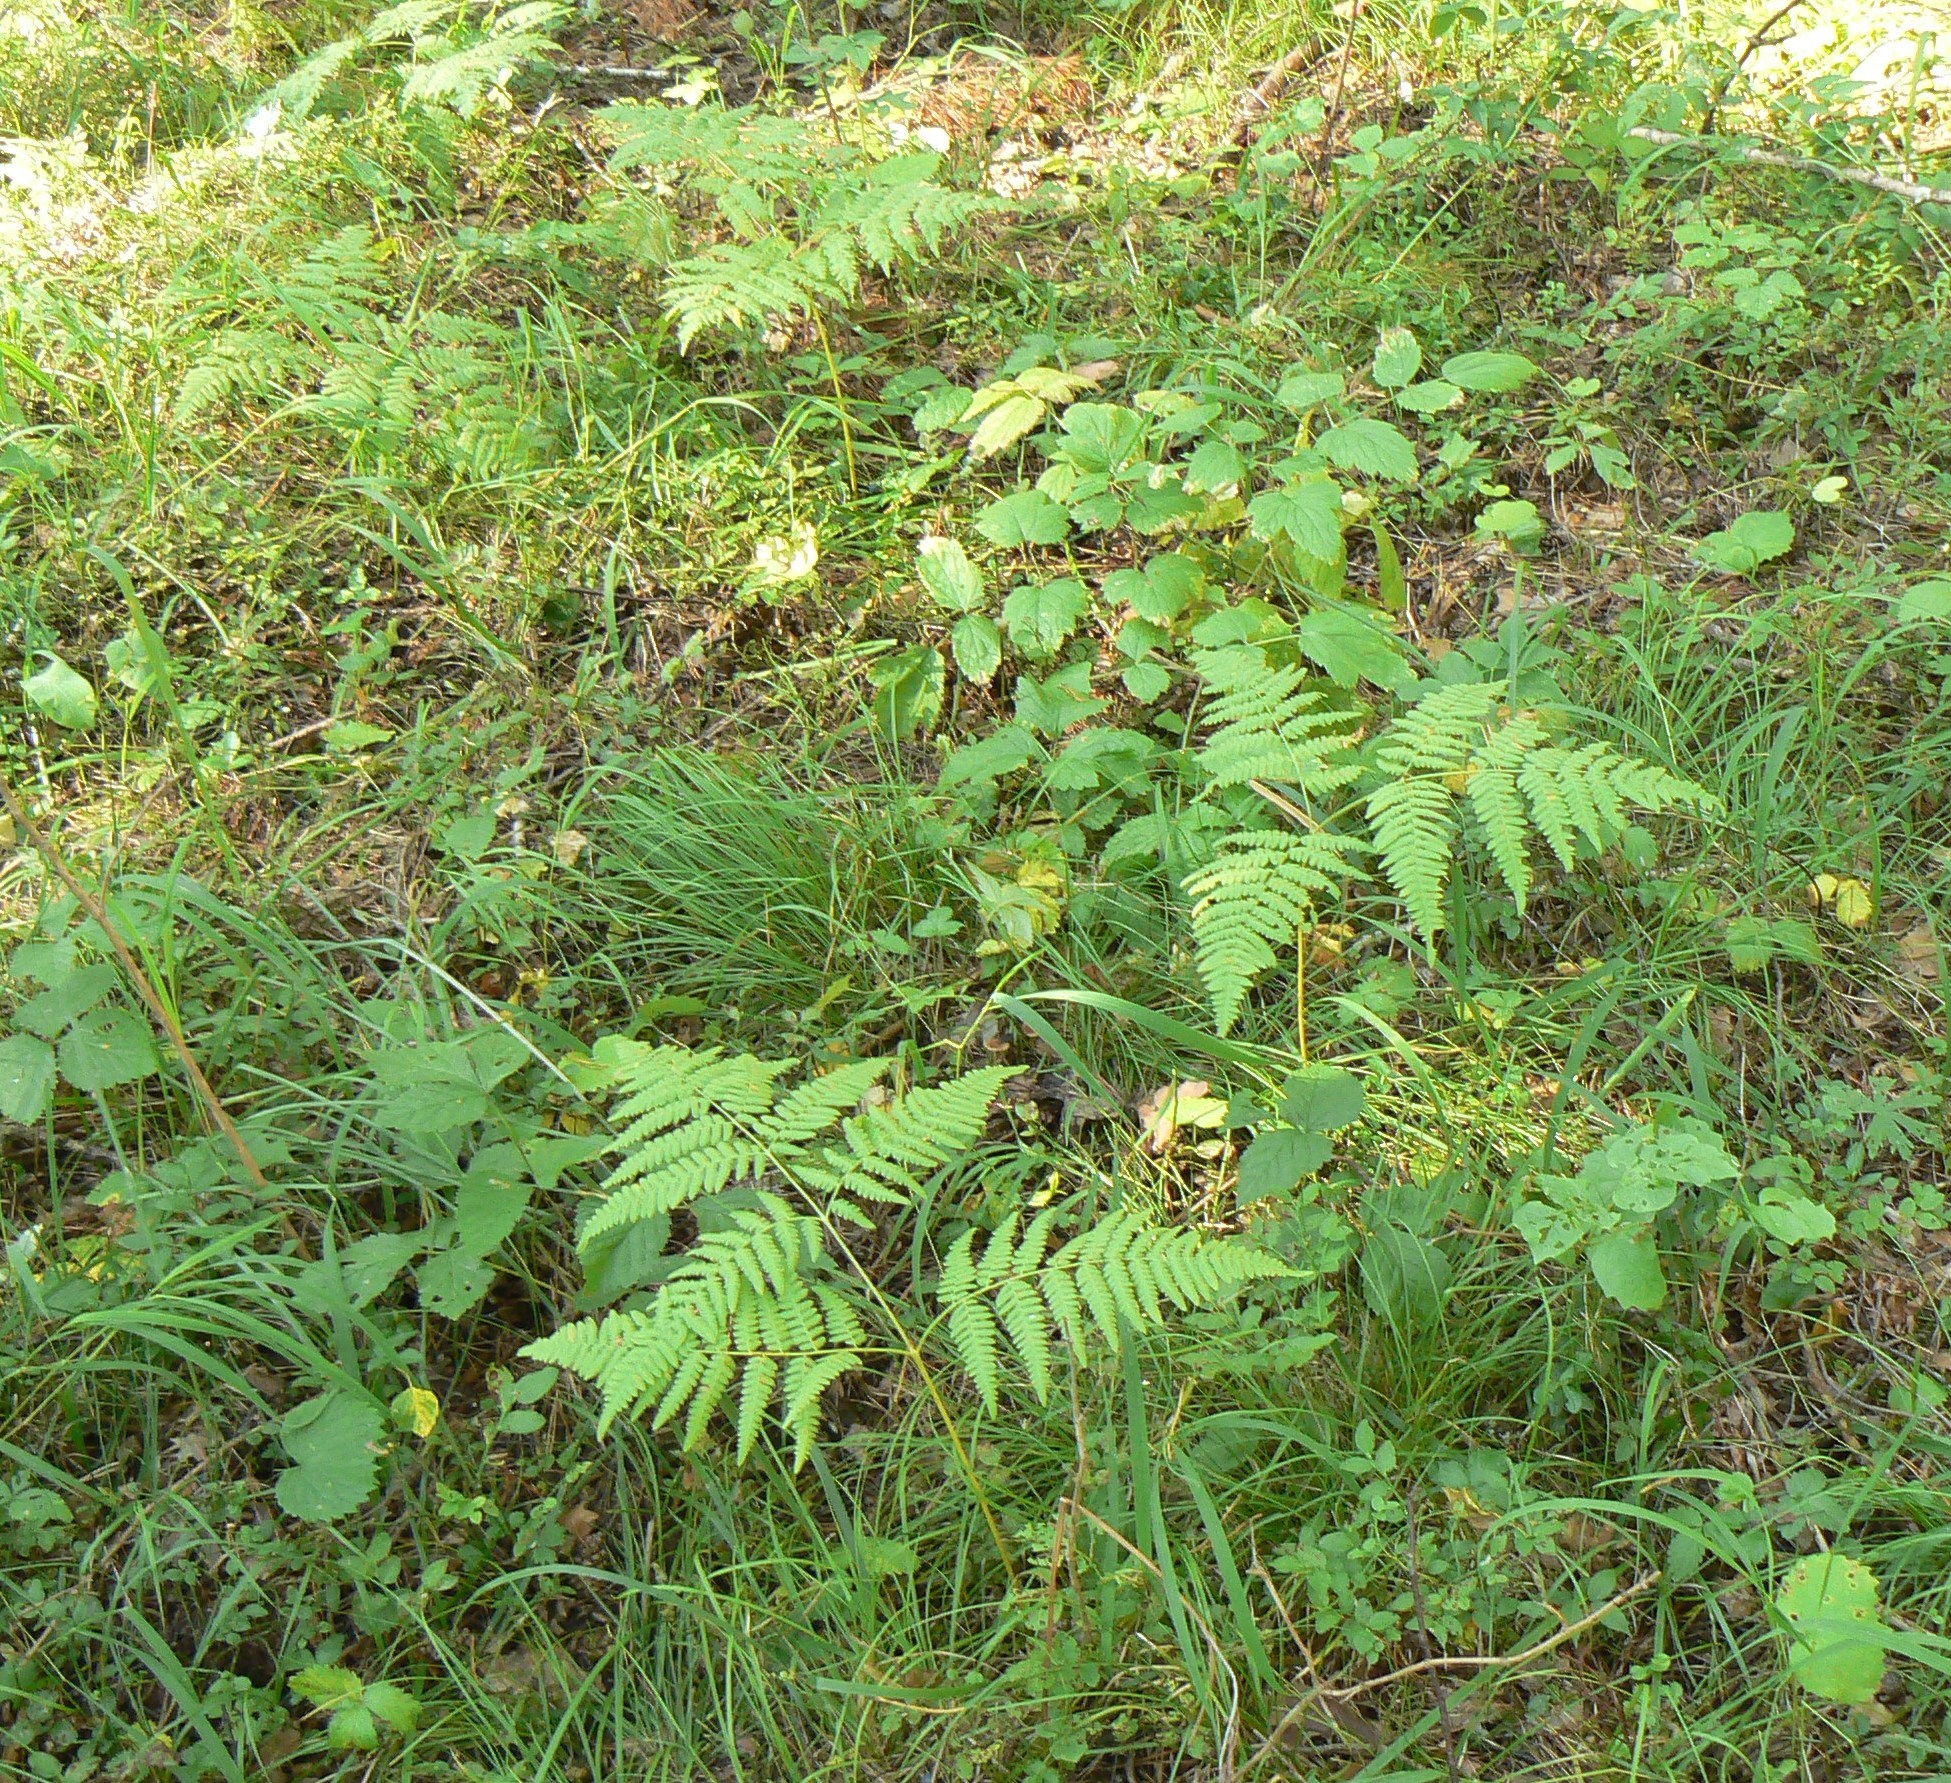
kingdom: Plantae
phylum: Tracheophyta
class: Polypodiopsida
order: Polypodiales
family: Dennstaedtiaceae
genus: Pteridium
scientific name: Pteridium aquilinum
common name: Bracken
